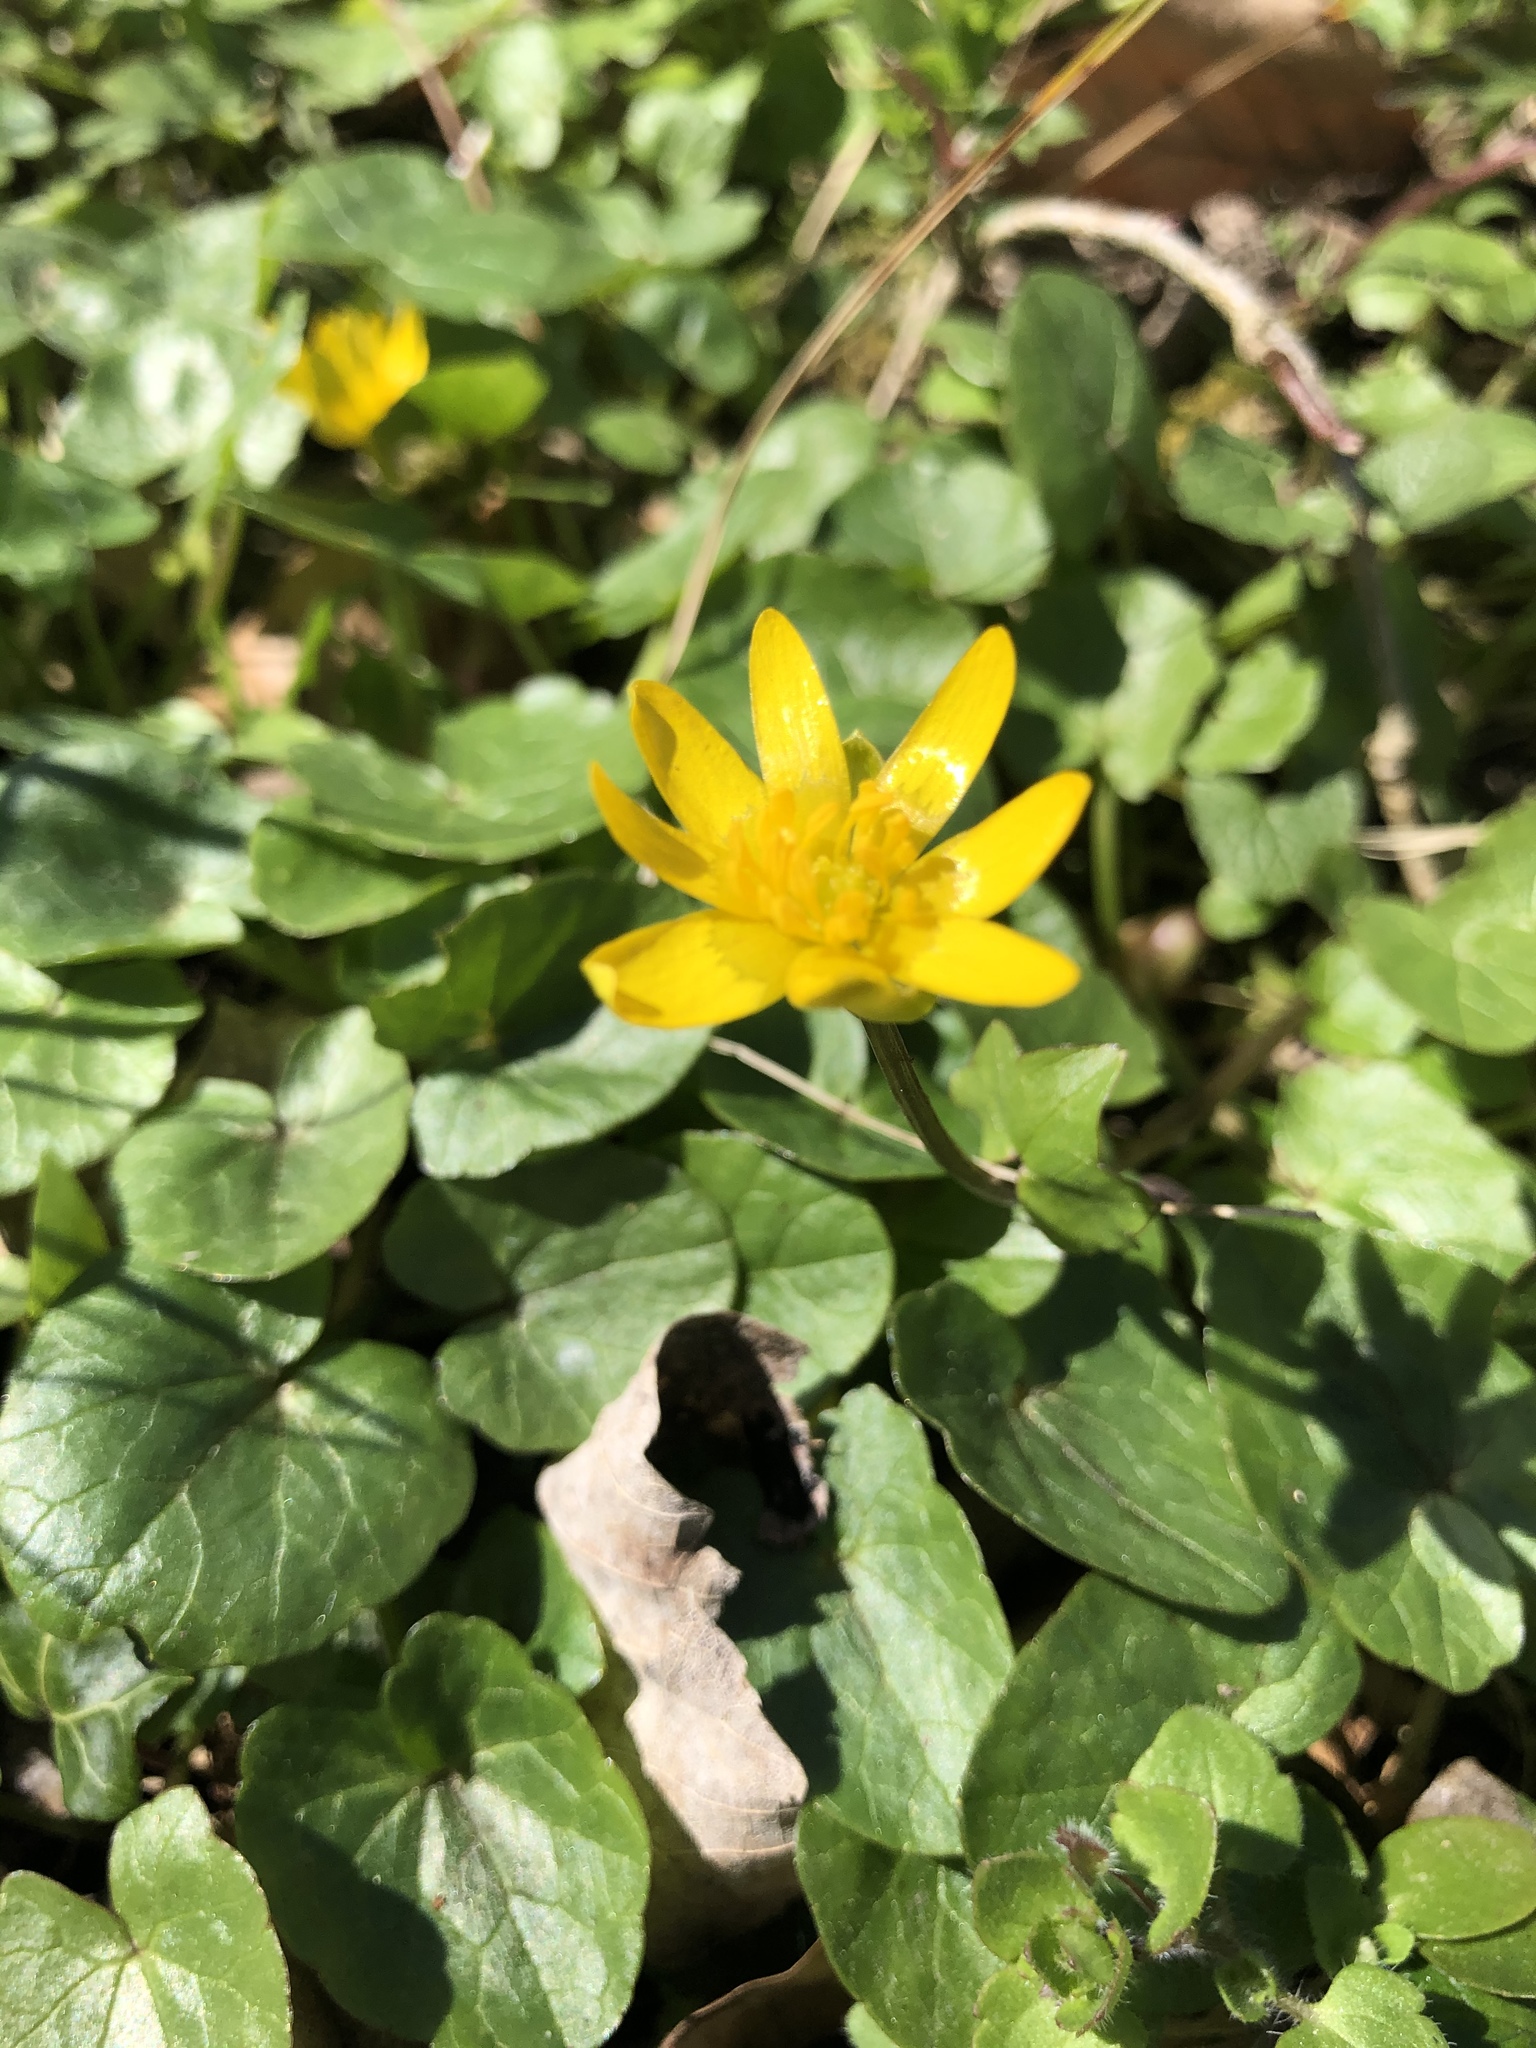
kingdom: Plantae
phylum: Tracheophyta
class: Magnoliopsida
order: Ranunculales
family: Ranunculaceae
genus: Ficaria
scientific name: Ficaria verna
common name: Lesser celandine
